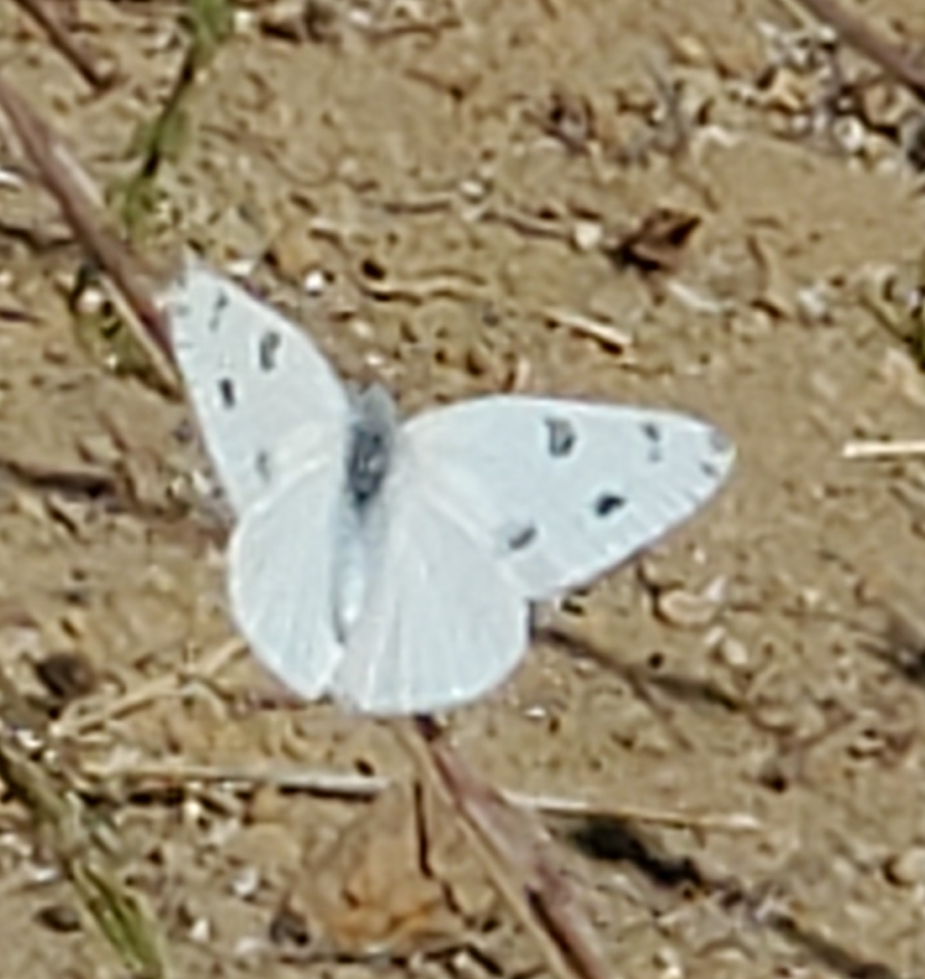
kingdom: Animalia
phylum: Arthropoda
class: Insecta
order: Lepidoptera
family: Pieridae
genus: Pontia
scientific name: Pontia protodice
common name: Checkered white
